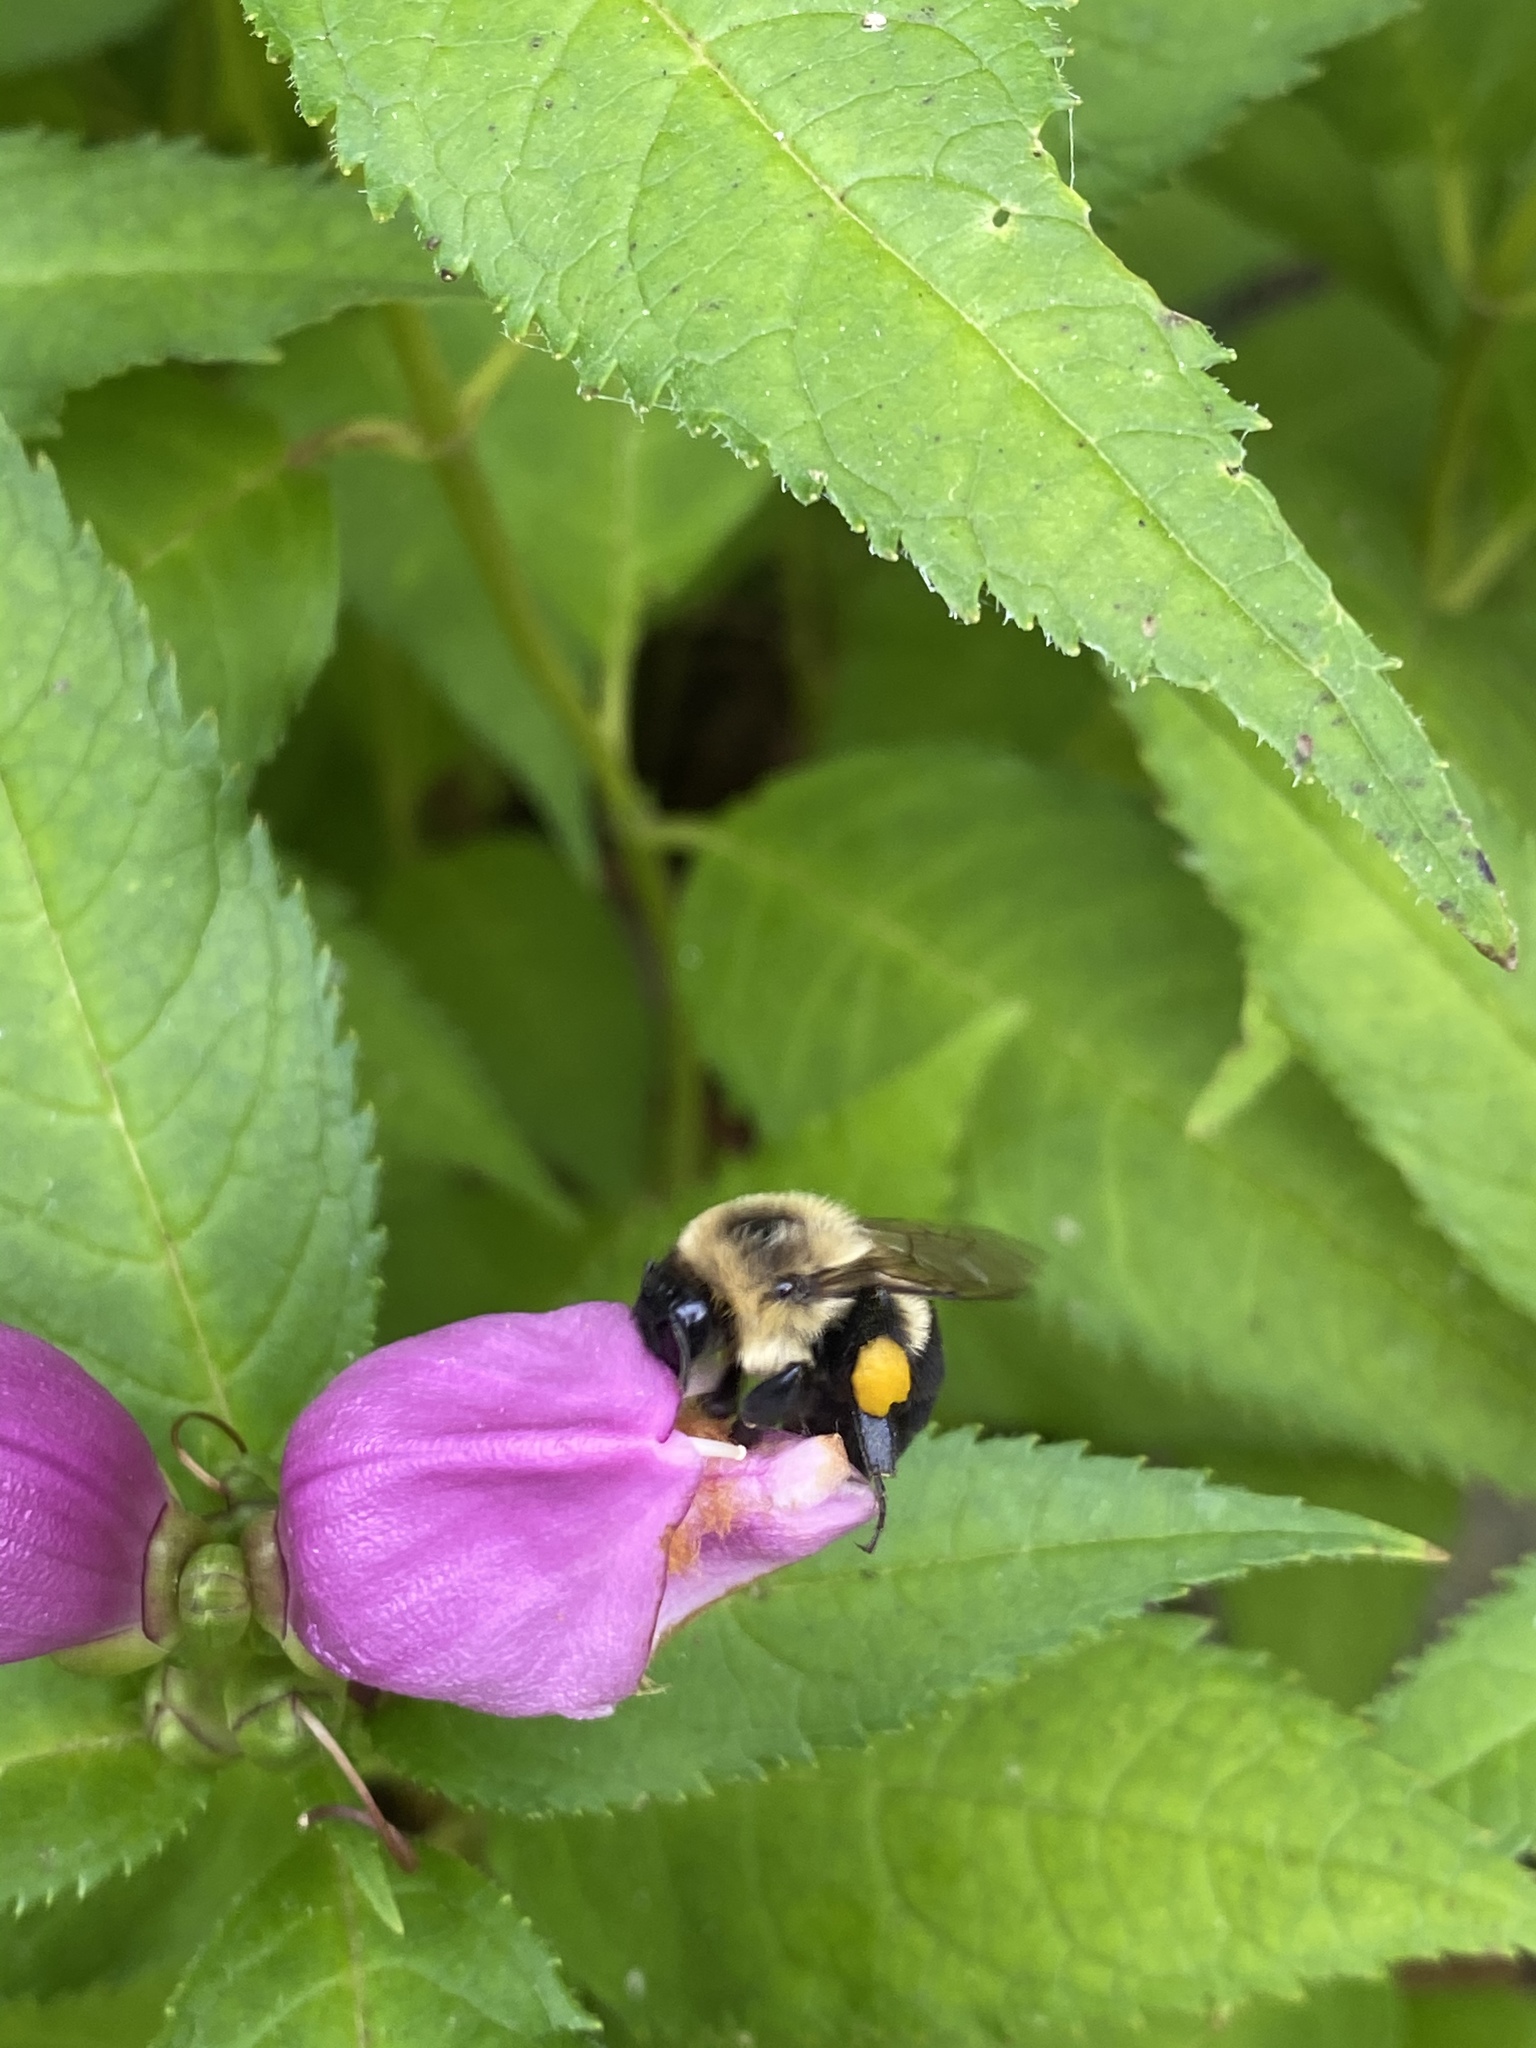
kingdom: Animalia
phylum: Arthropoda
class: Insecta
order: Hymenoptera
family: Apidae
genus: Bombus
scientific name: Bombus impatiens
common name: Common eastern bumble bee
